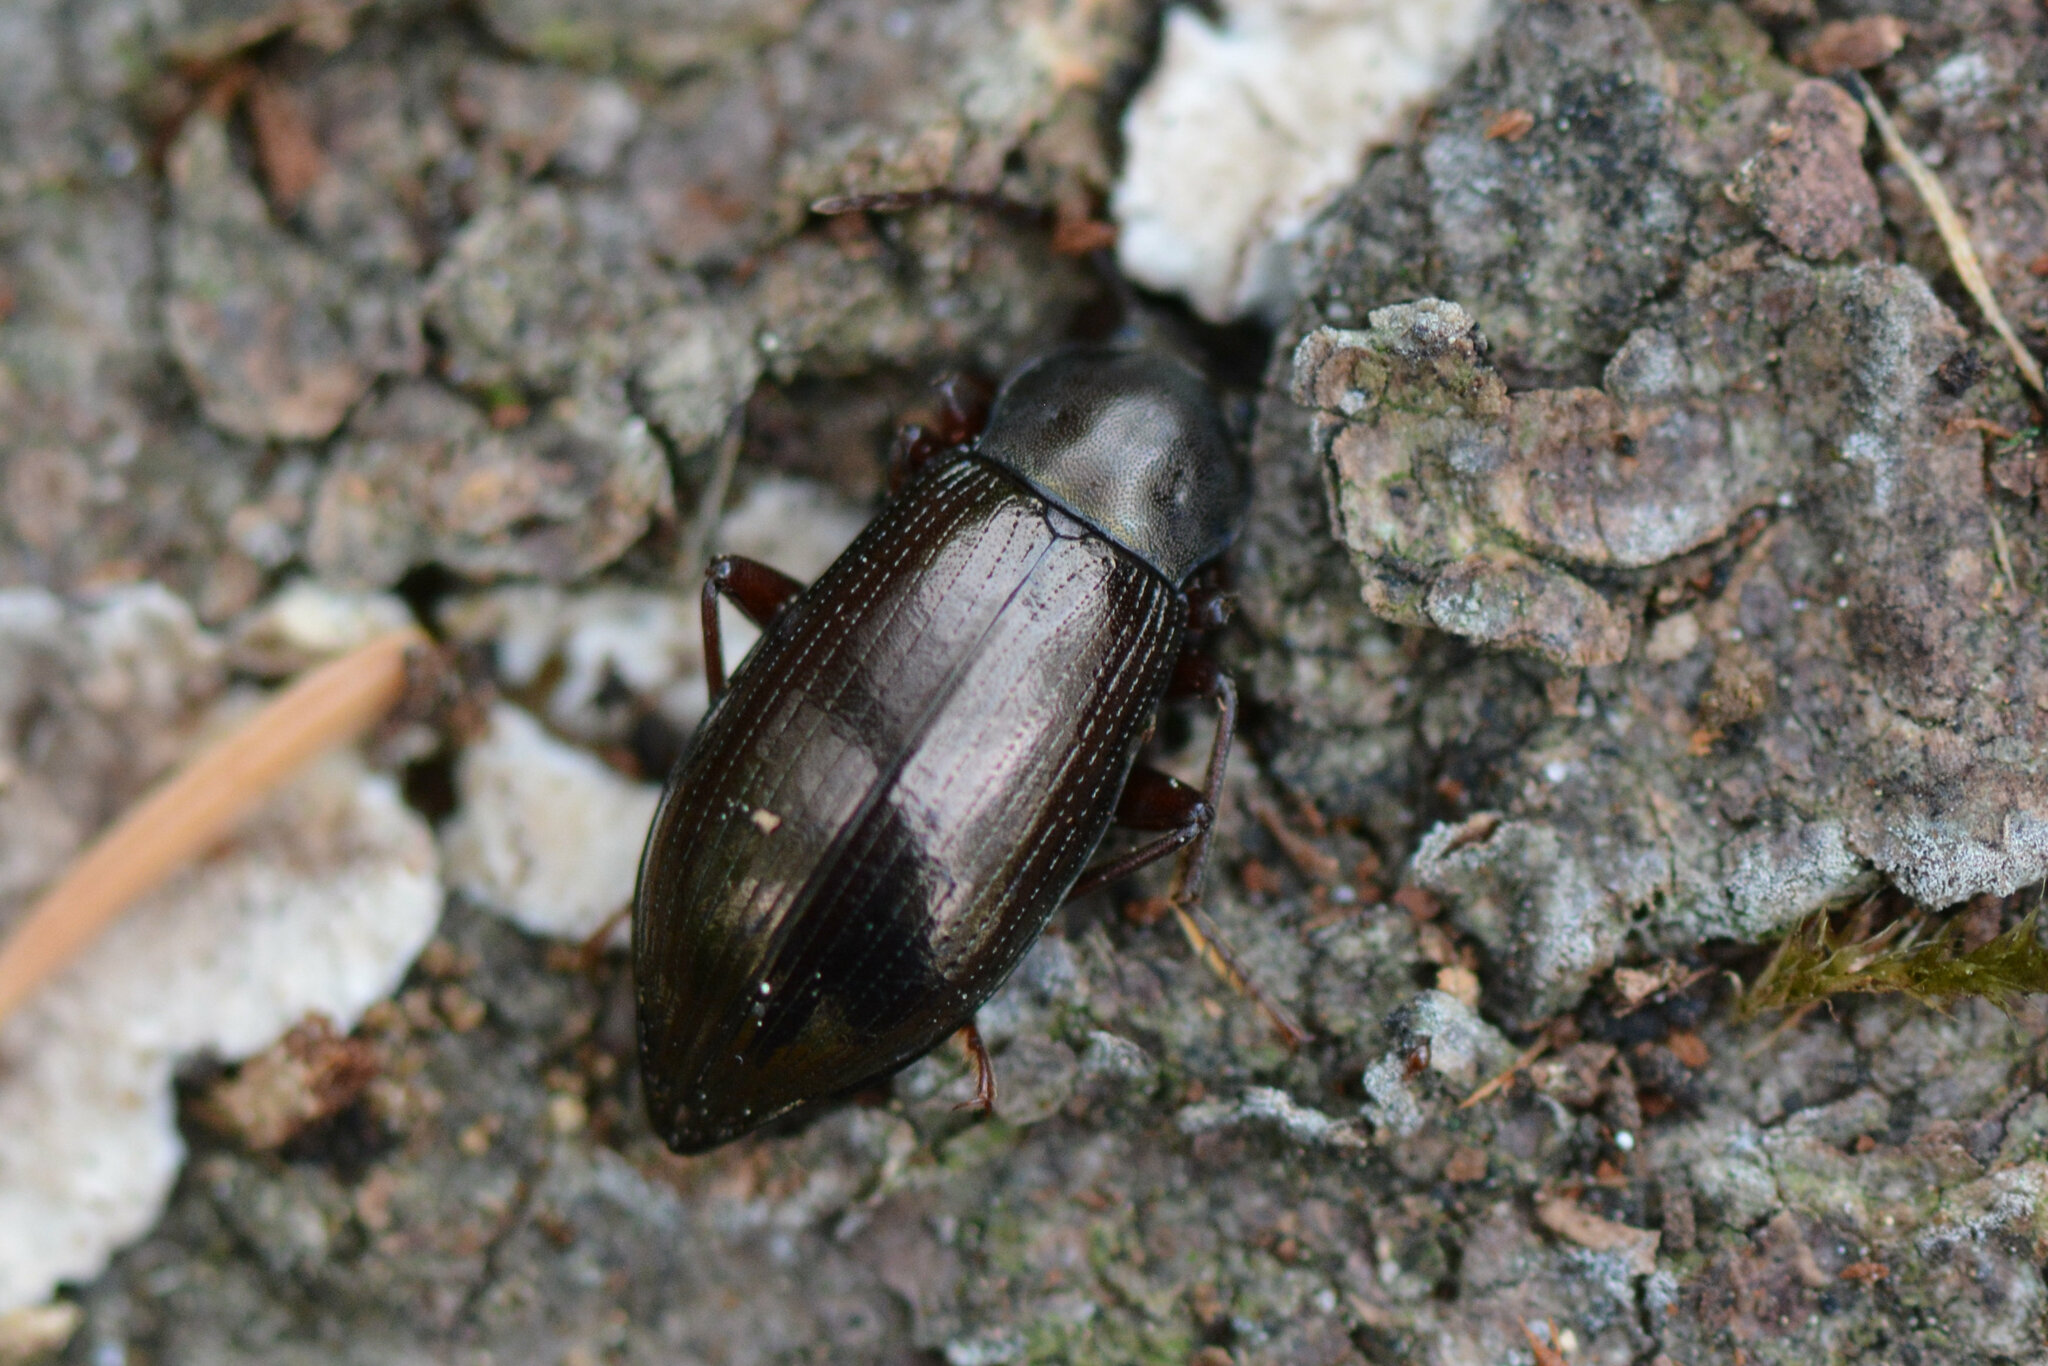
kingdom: Animalia
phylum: Arthropoda
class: Insecta
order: Coleoptera
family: Tenebrionidae
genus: Stenomax
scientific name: Stenomax aeneus
